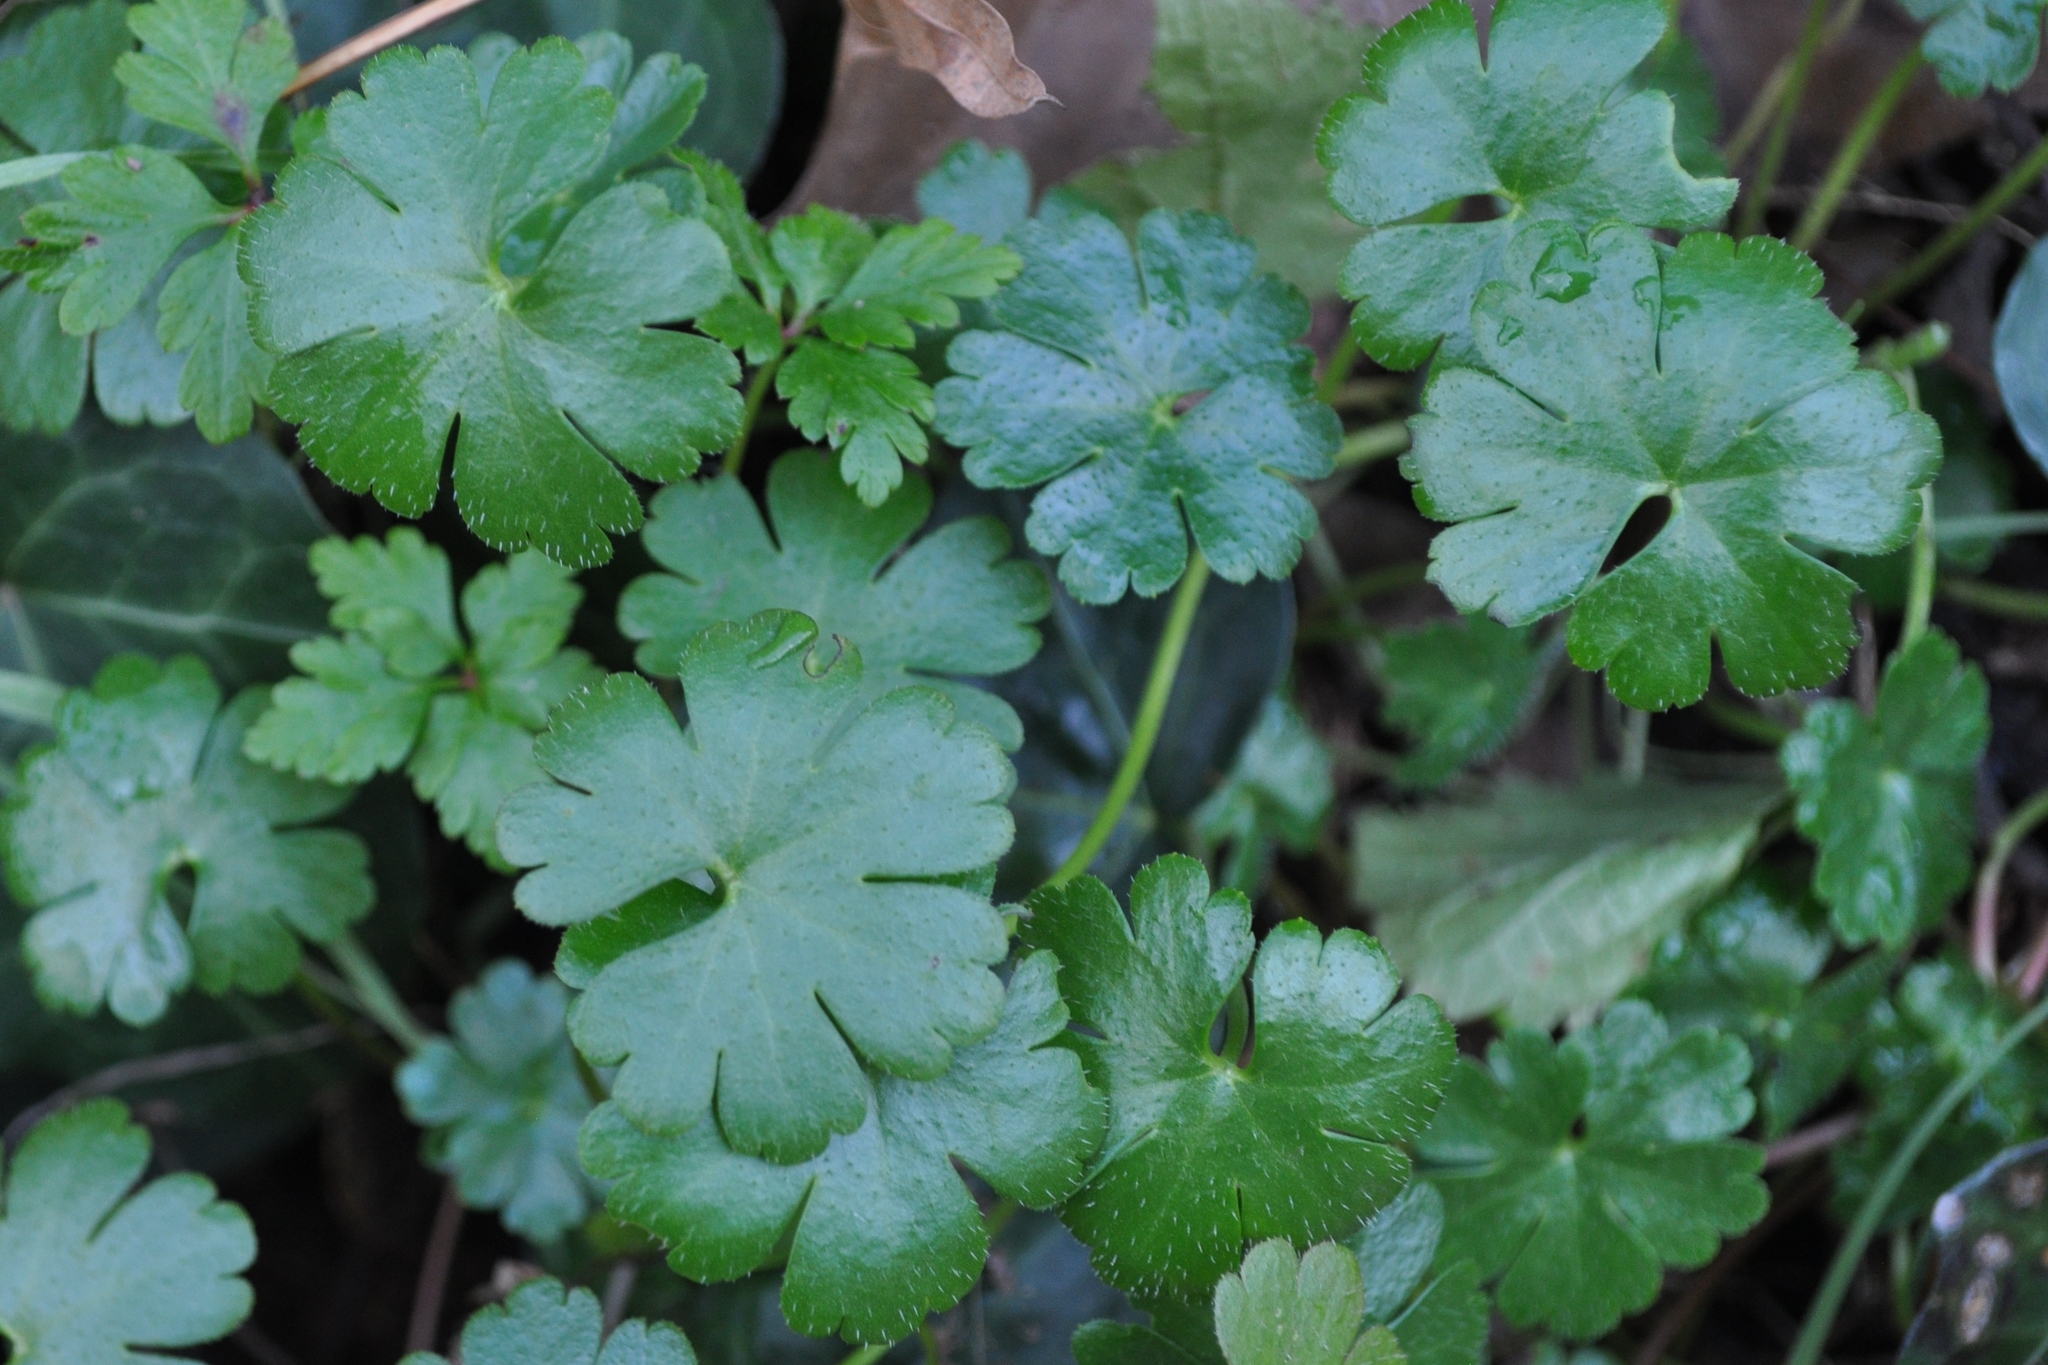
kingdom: Plantae
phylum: Tracheophyta
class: Magnoliopsida
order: Geraniales
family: Geraniaceae
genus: Geranium
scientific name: Geranium lucidum
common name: Shining crane's-bill
